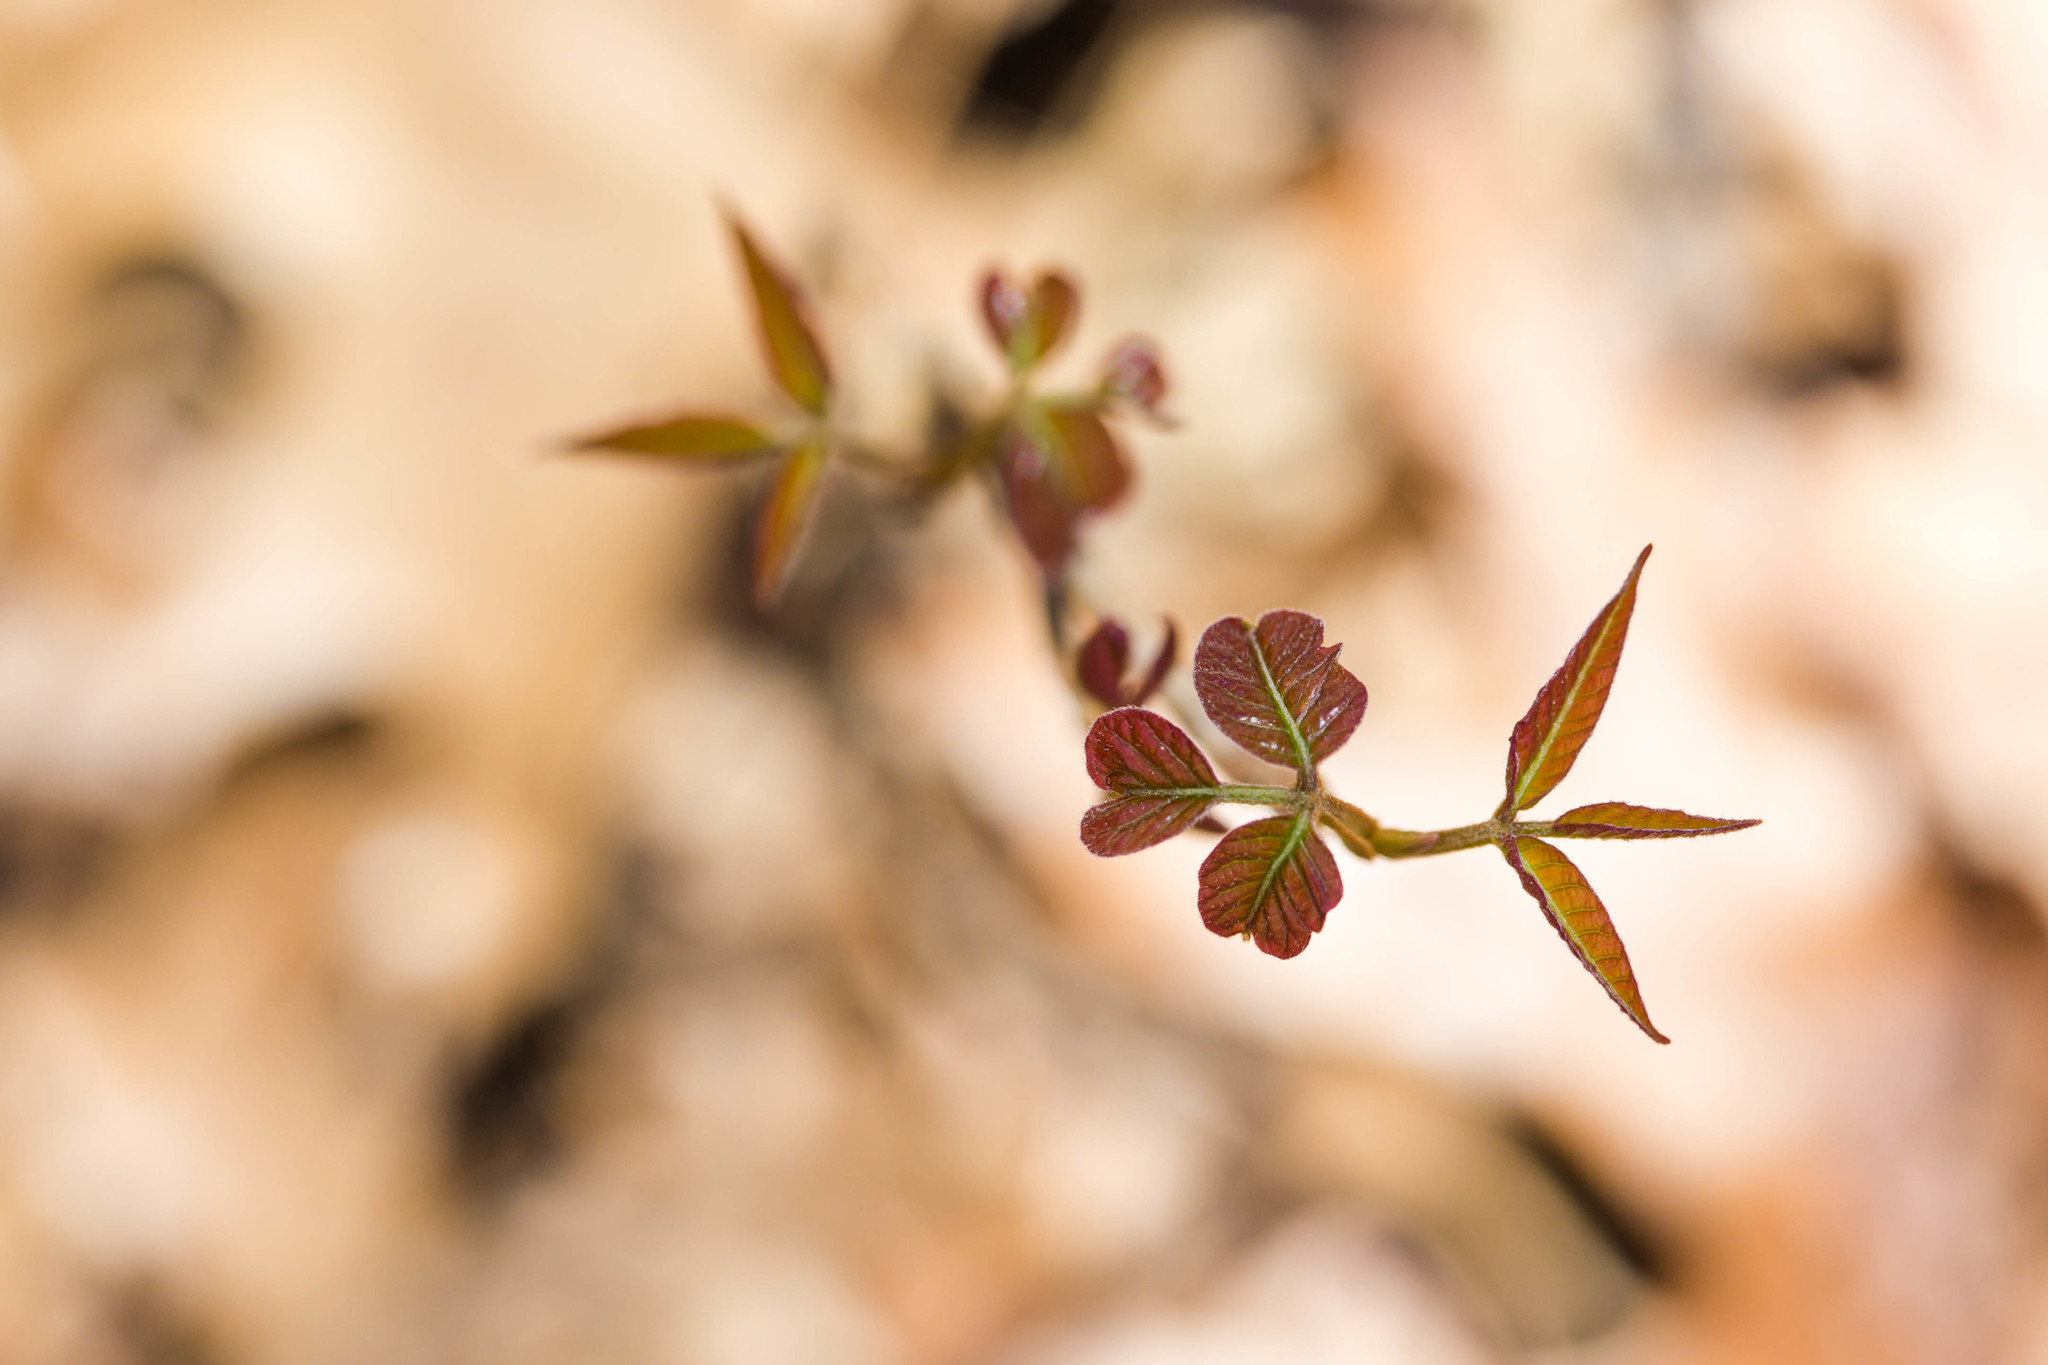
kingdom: Plantae
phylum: Tracheophyta
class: Magnoliopsida
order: Sapindales
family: Anacardiaceae
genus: Toxicodendron
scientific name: Toxicodendron radicans
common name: Poison ivy
